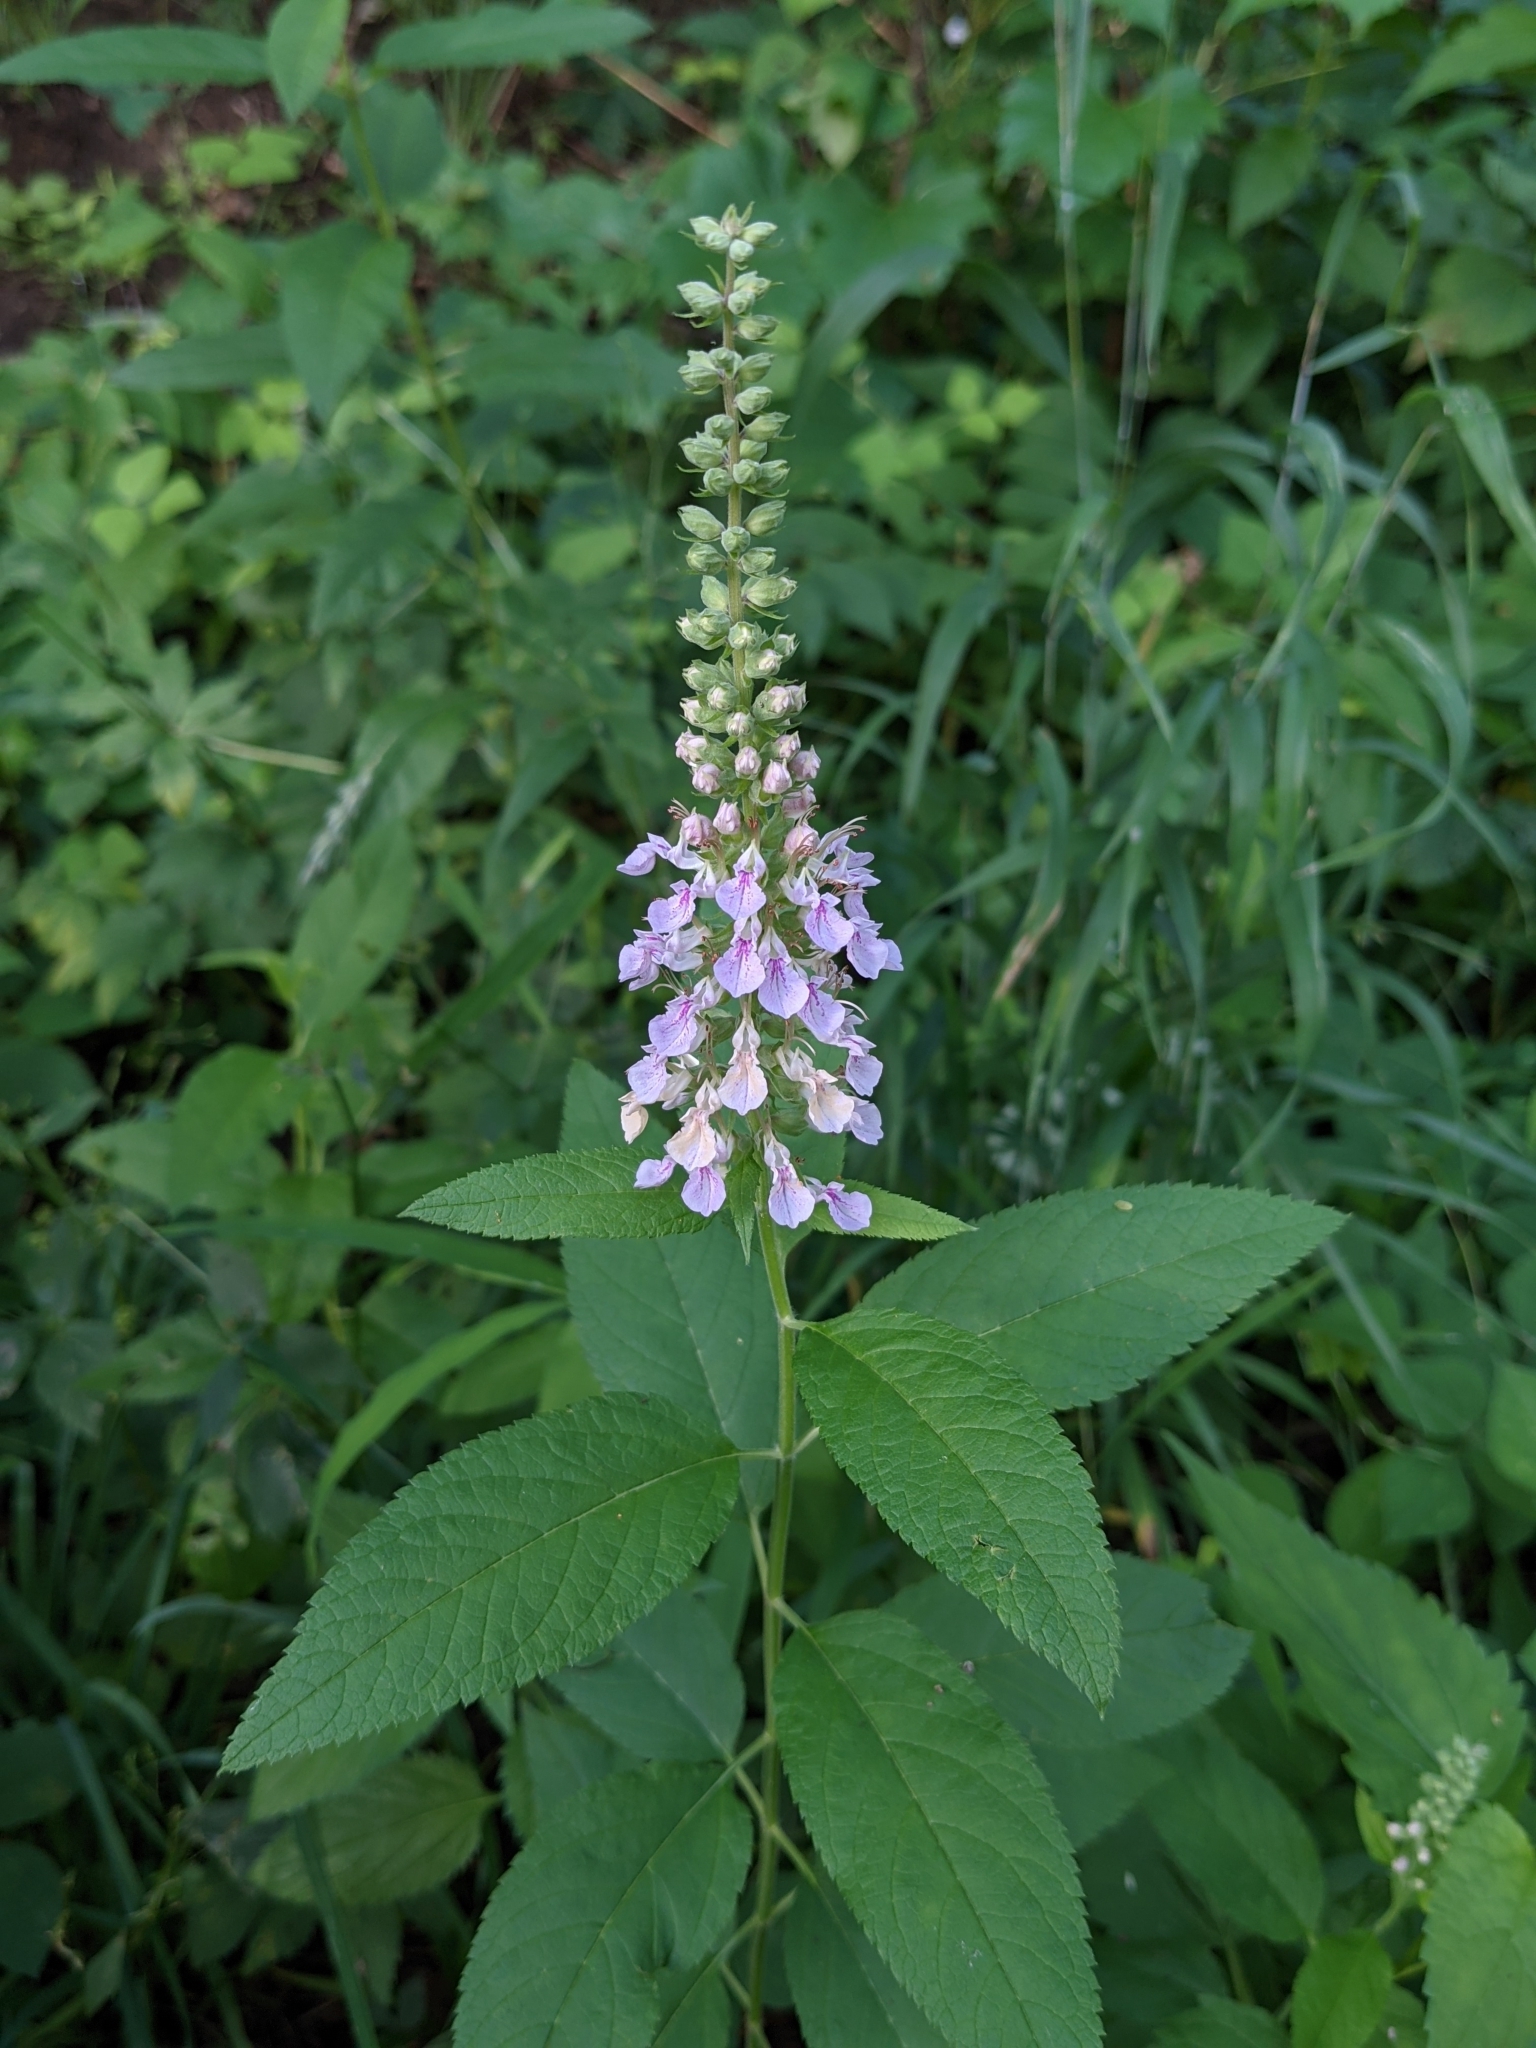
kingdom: Plantae
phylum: Tracheophyta
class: Magnoliopsida
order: Lamiales
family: Lamiaceae
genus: Teucrium
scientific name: Teucrium canadense
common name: American germander
